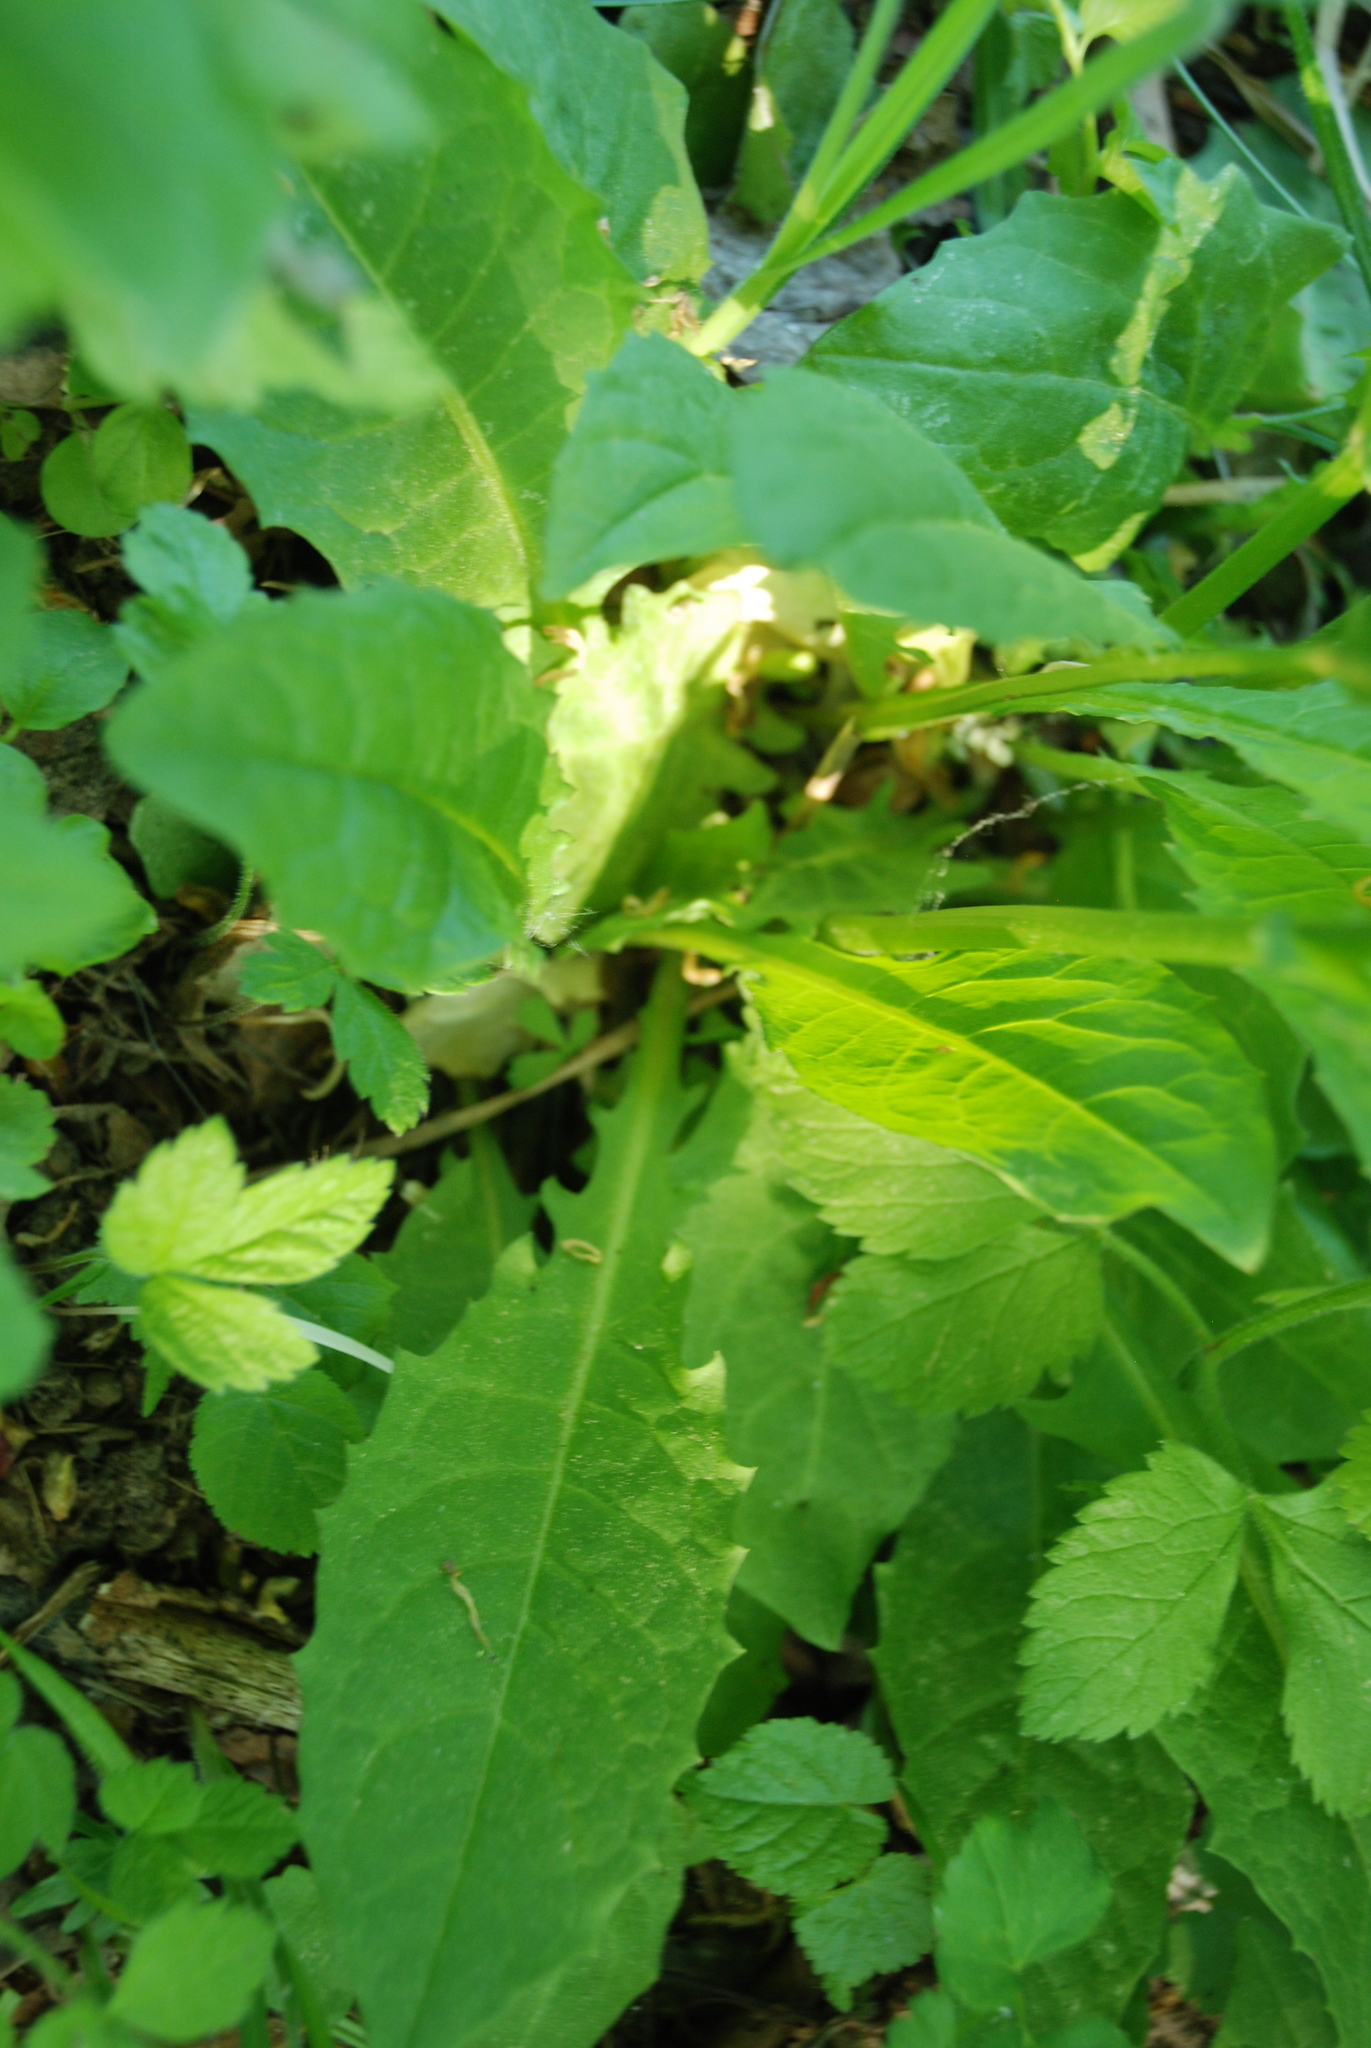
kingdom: Plantae
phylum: Tracheophyta
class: Magnoliopsida
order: Asterales
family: Asteraceae
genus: Crepis
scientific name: Crepis paludosa
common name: Marsh hawk's-beard
